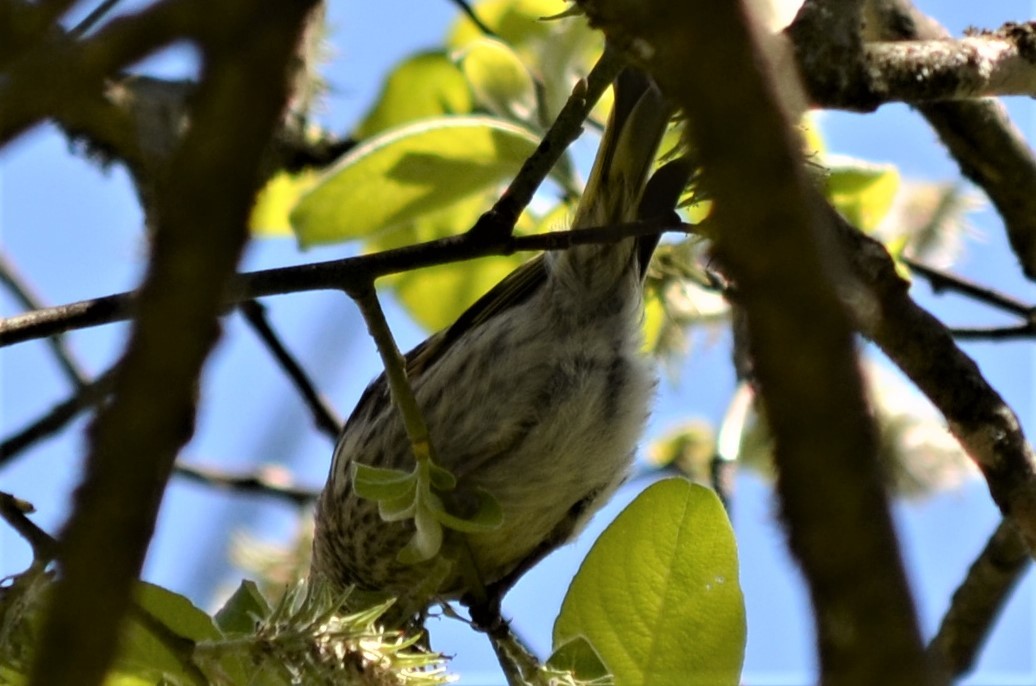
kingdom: Animalia
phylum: Chordata
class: Aves
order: Passeriformes
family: Fringillidae
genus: Spinus
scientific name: Spinus spinus
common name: Eurasian siskin
